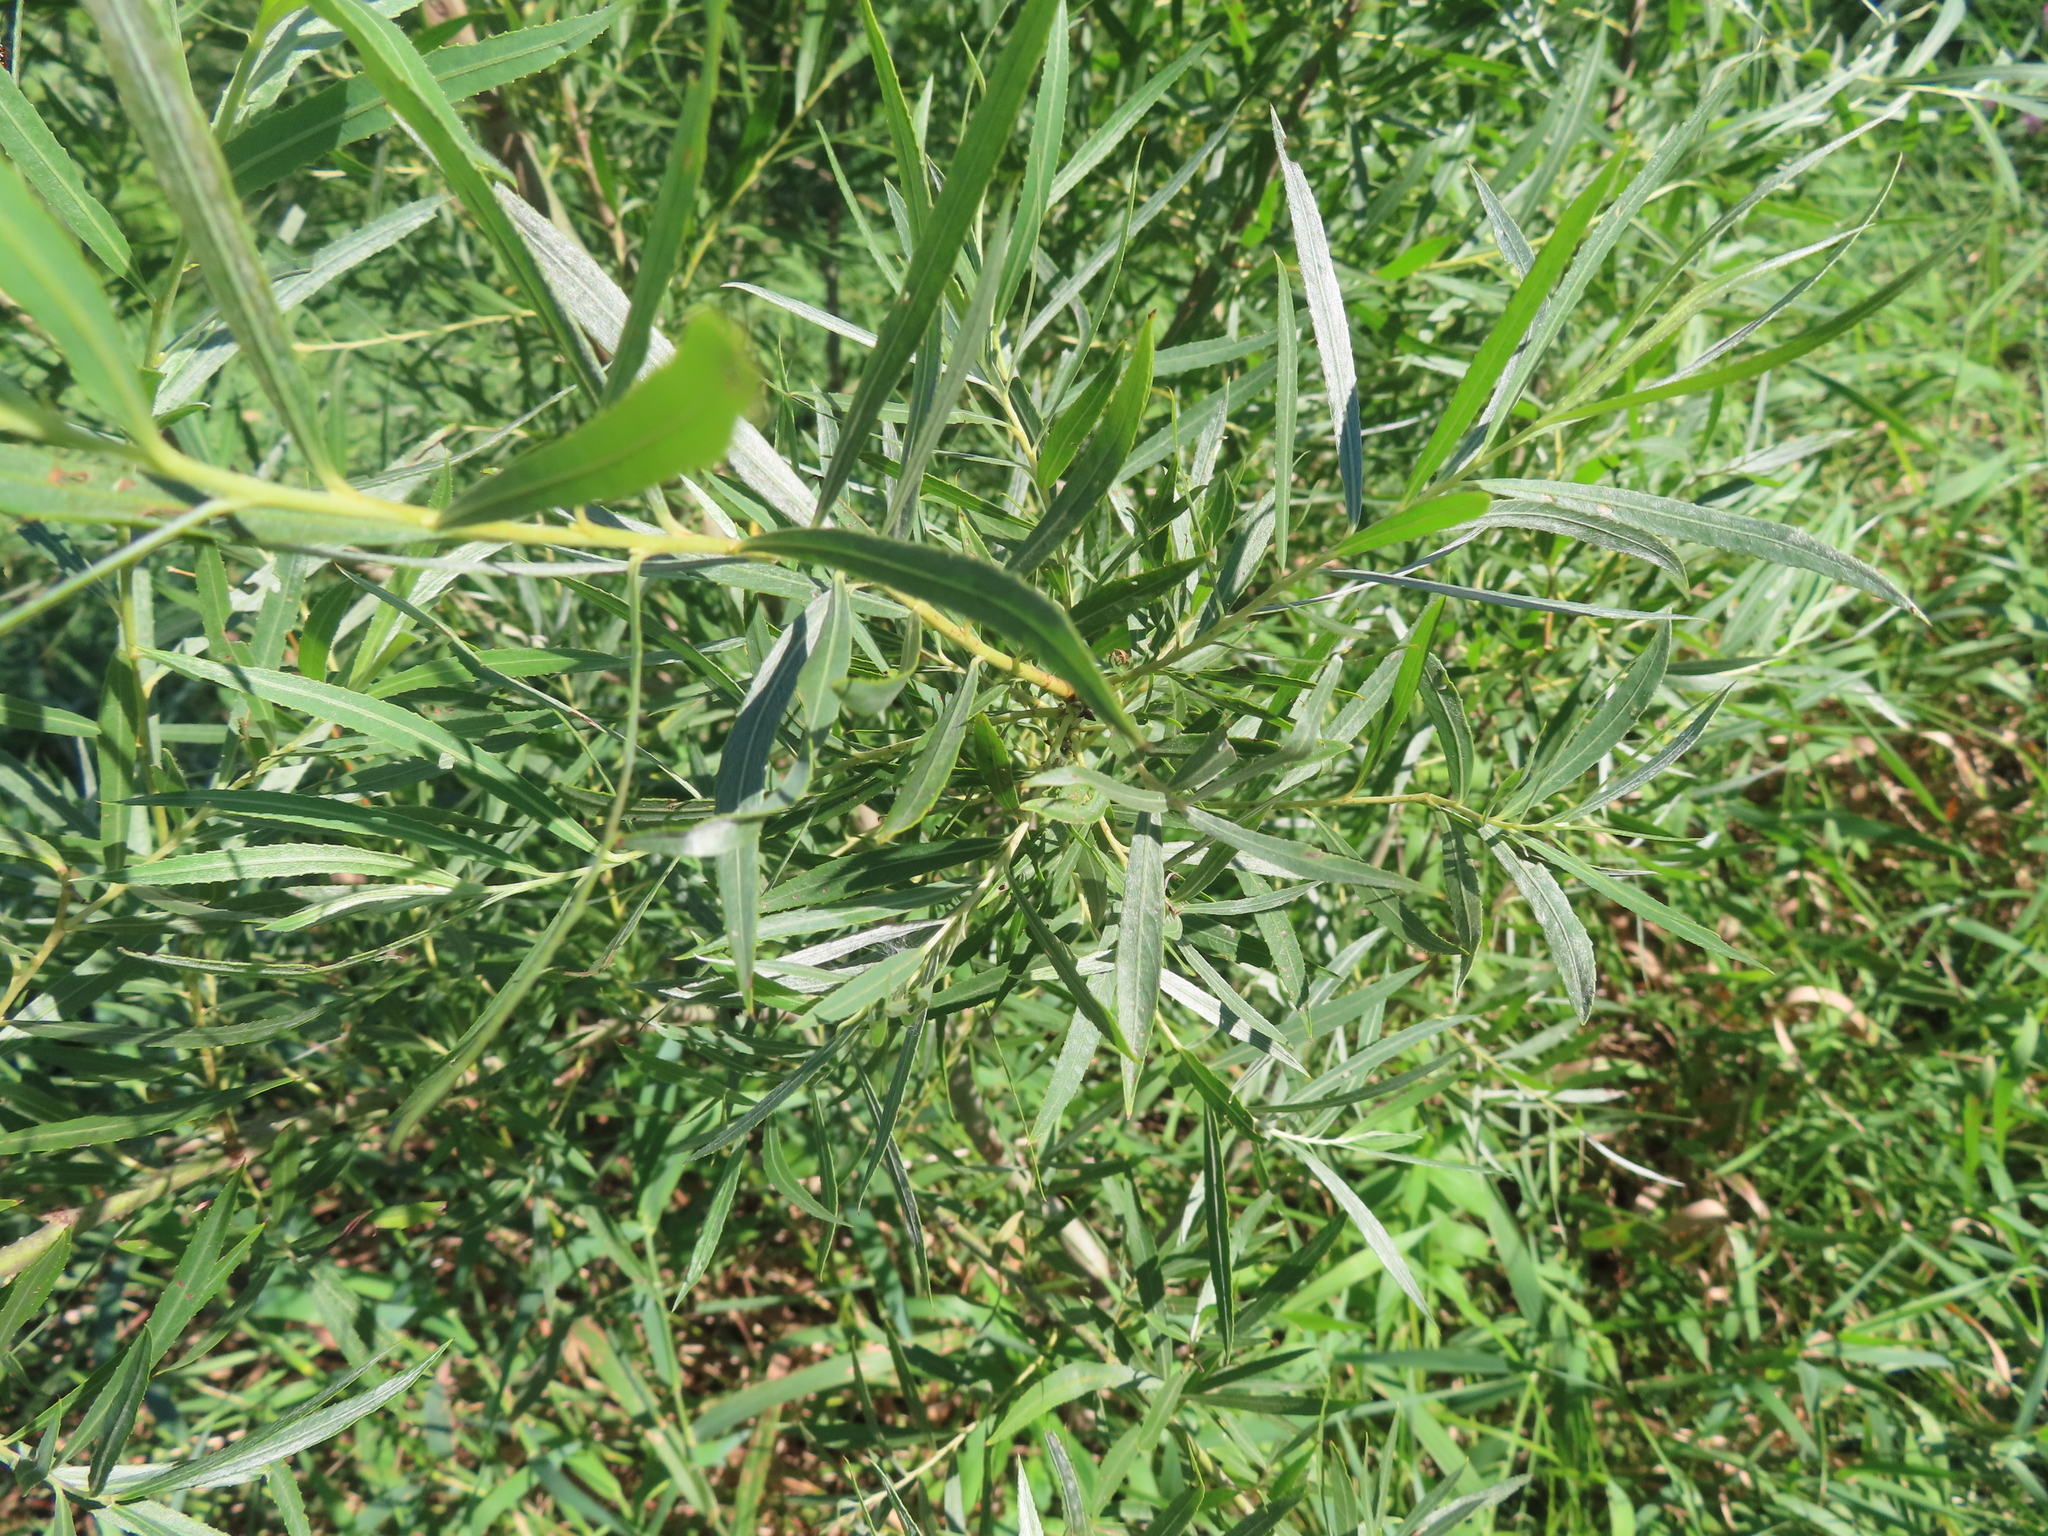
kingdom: Plantae
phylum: Tracheophyta
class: Magnoliopsida
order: Malpighiales
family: Salicaceae
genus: Salix
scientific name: Salix interior
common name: Sandbar willow
